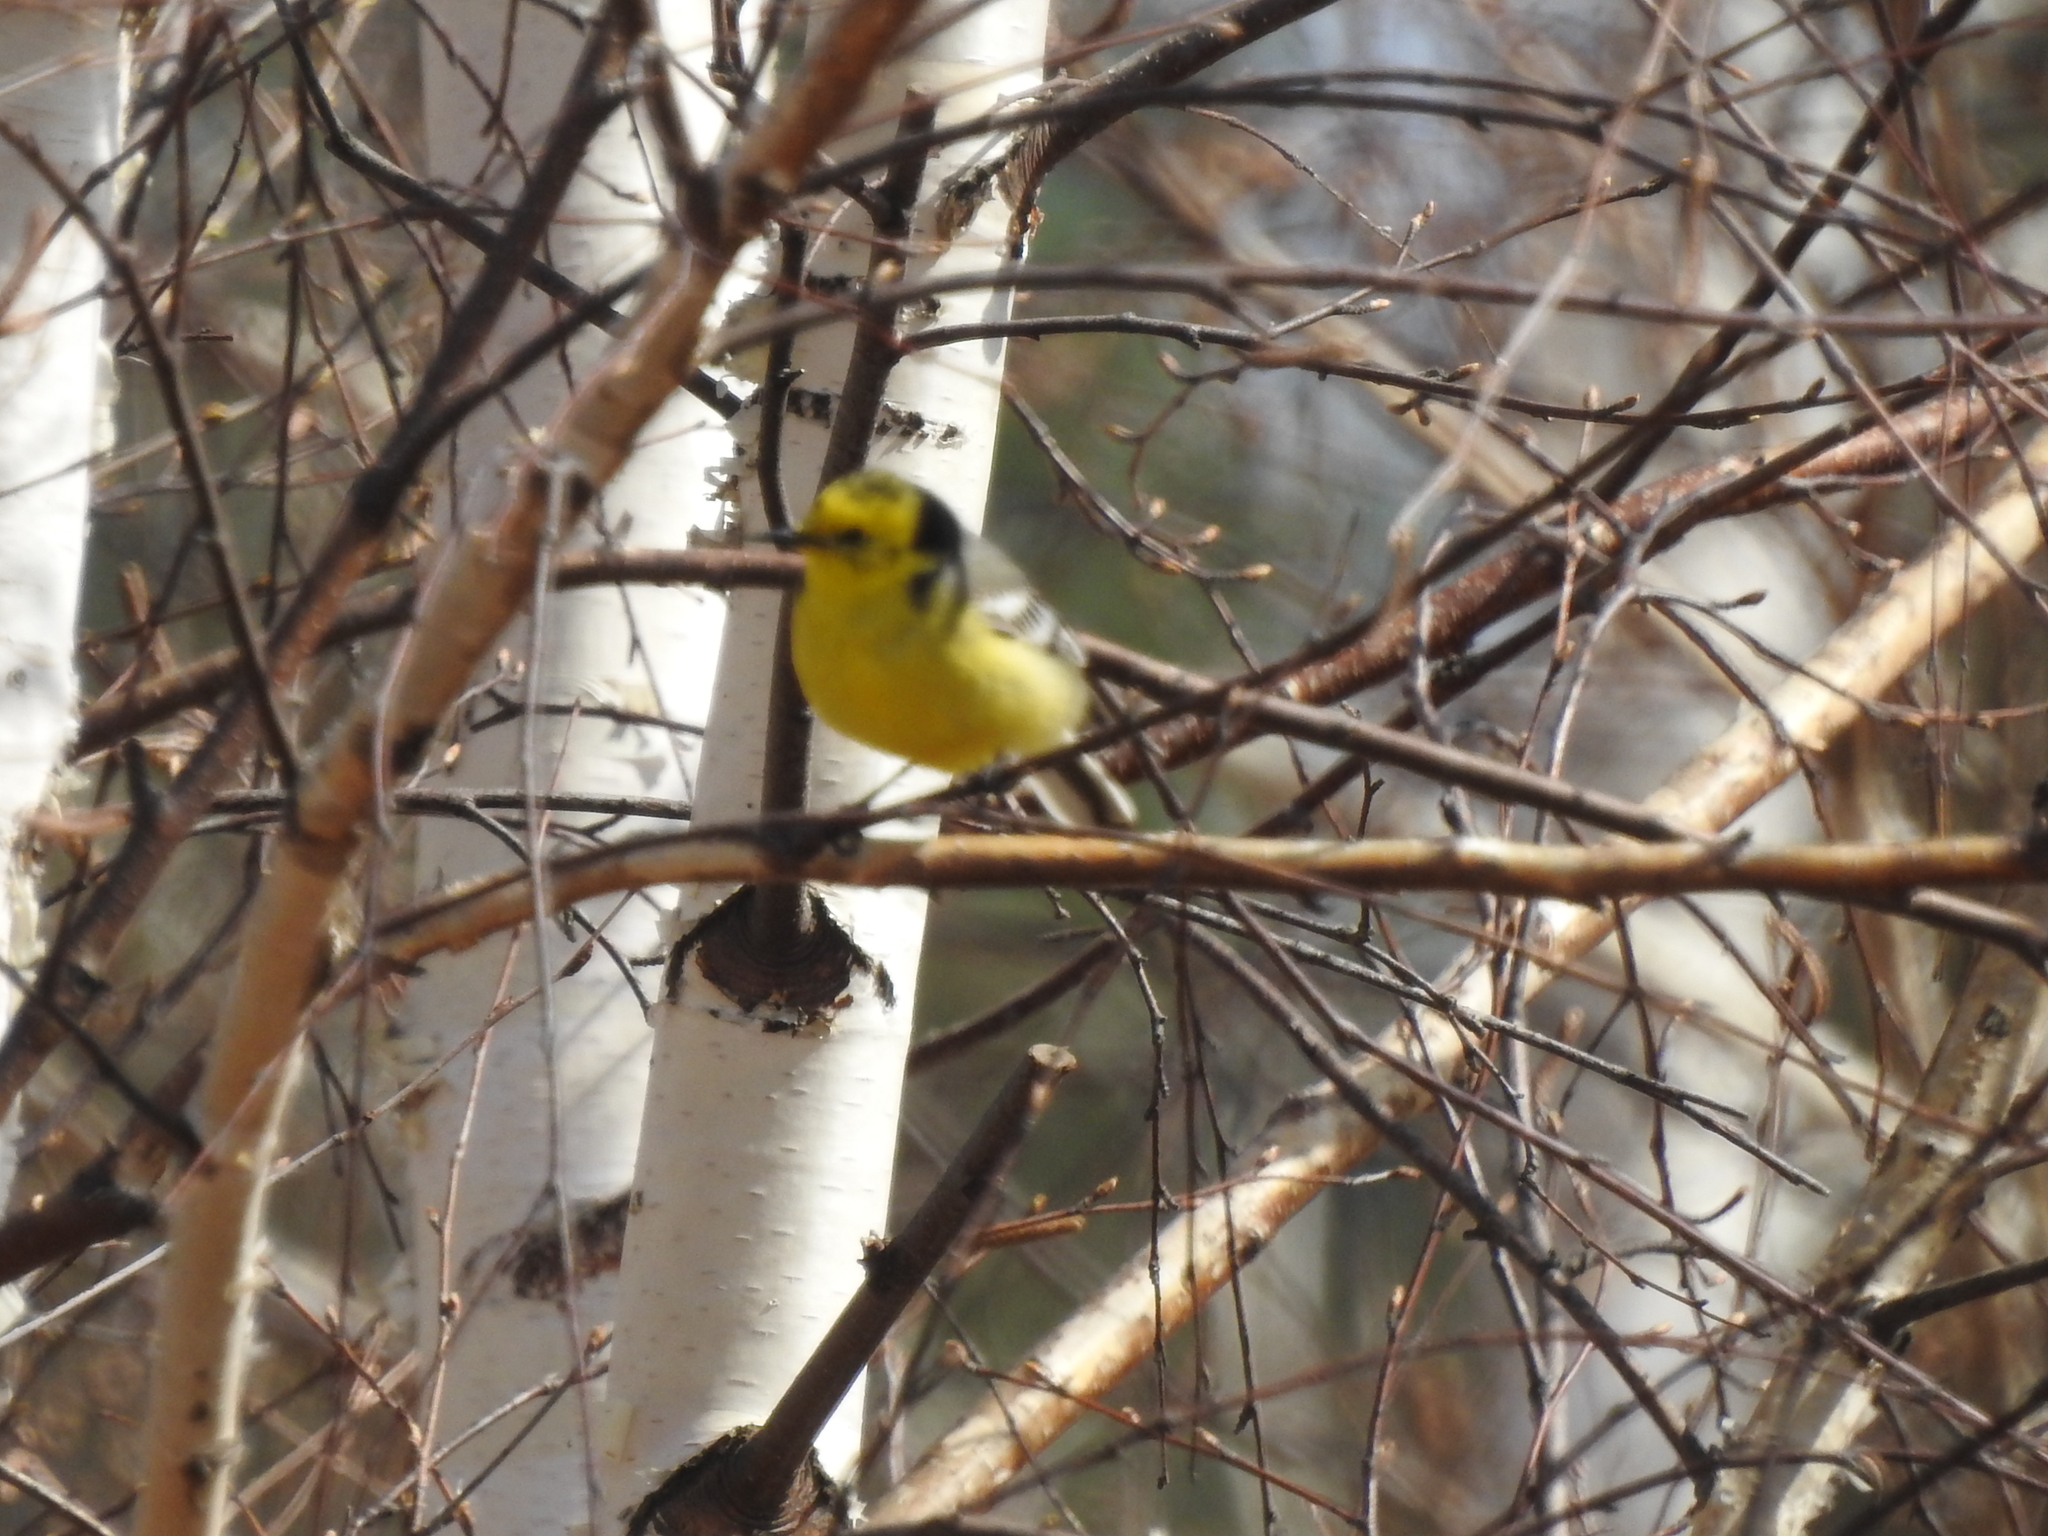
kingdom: Animalia
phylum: Chordata
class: Aves
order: Passeriformes
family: Motacillidae
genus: Motacilla
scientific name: Motacilla citreola
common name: Citrine wagtail
